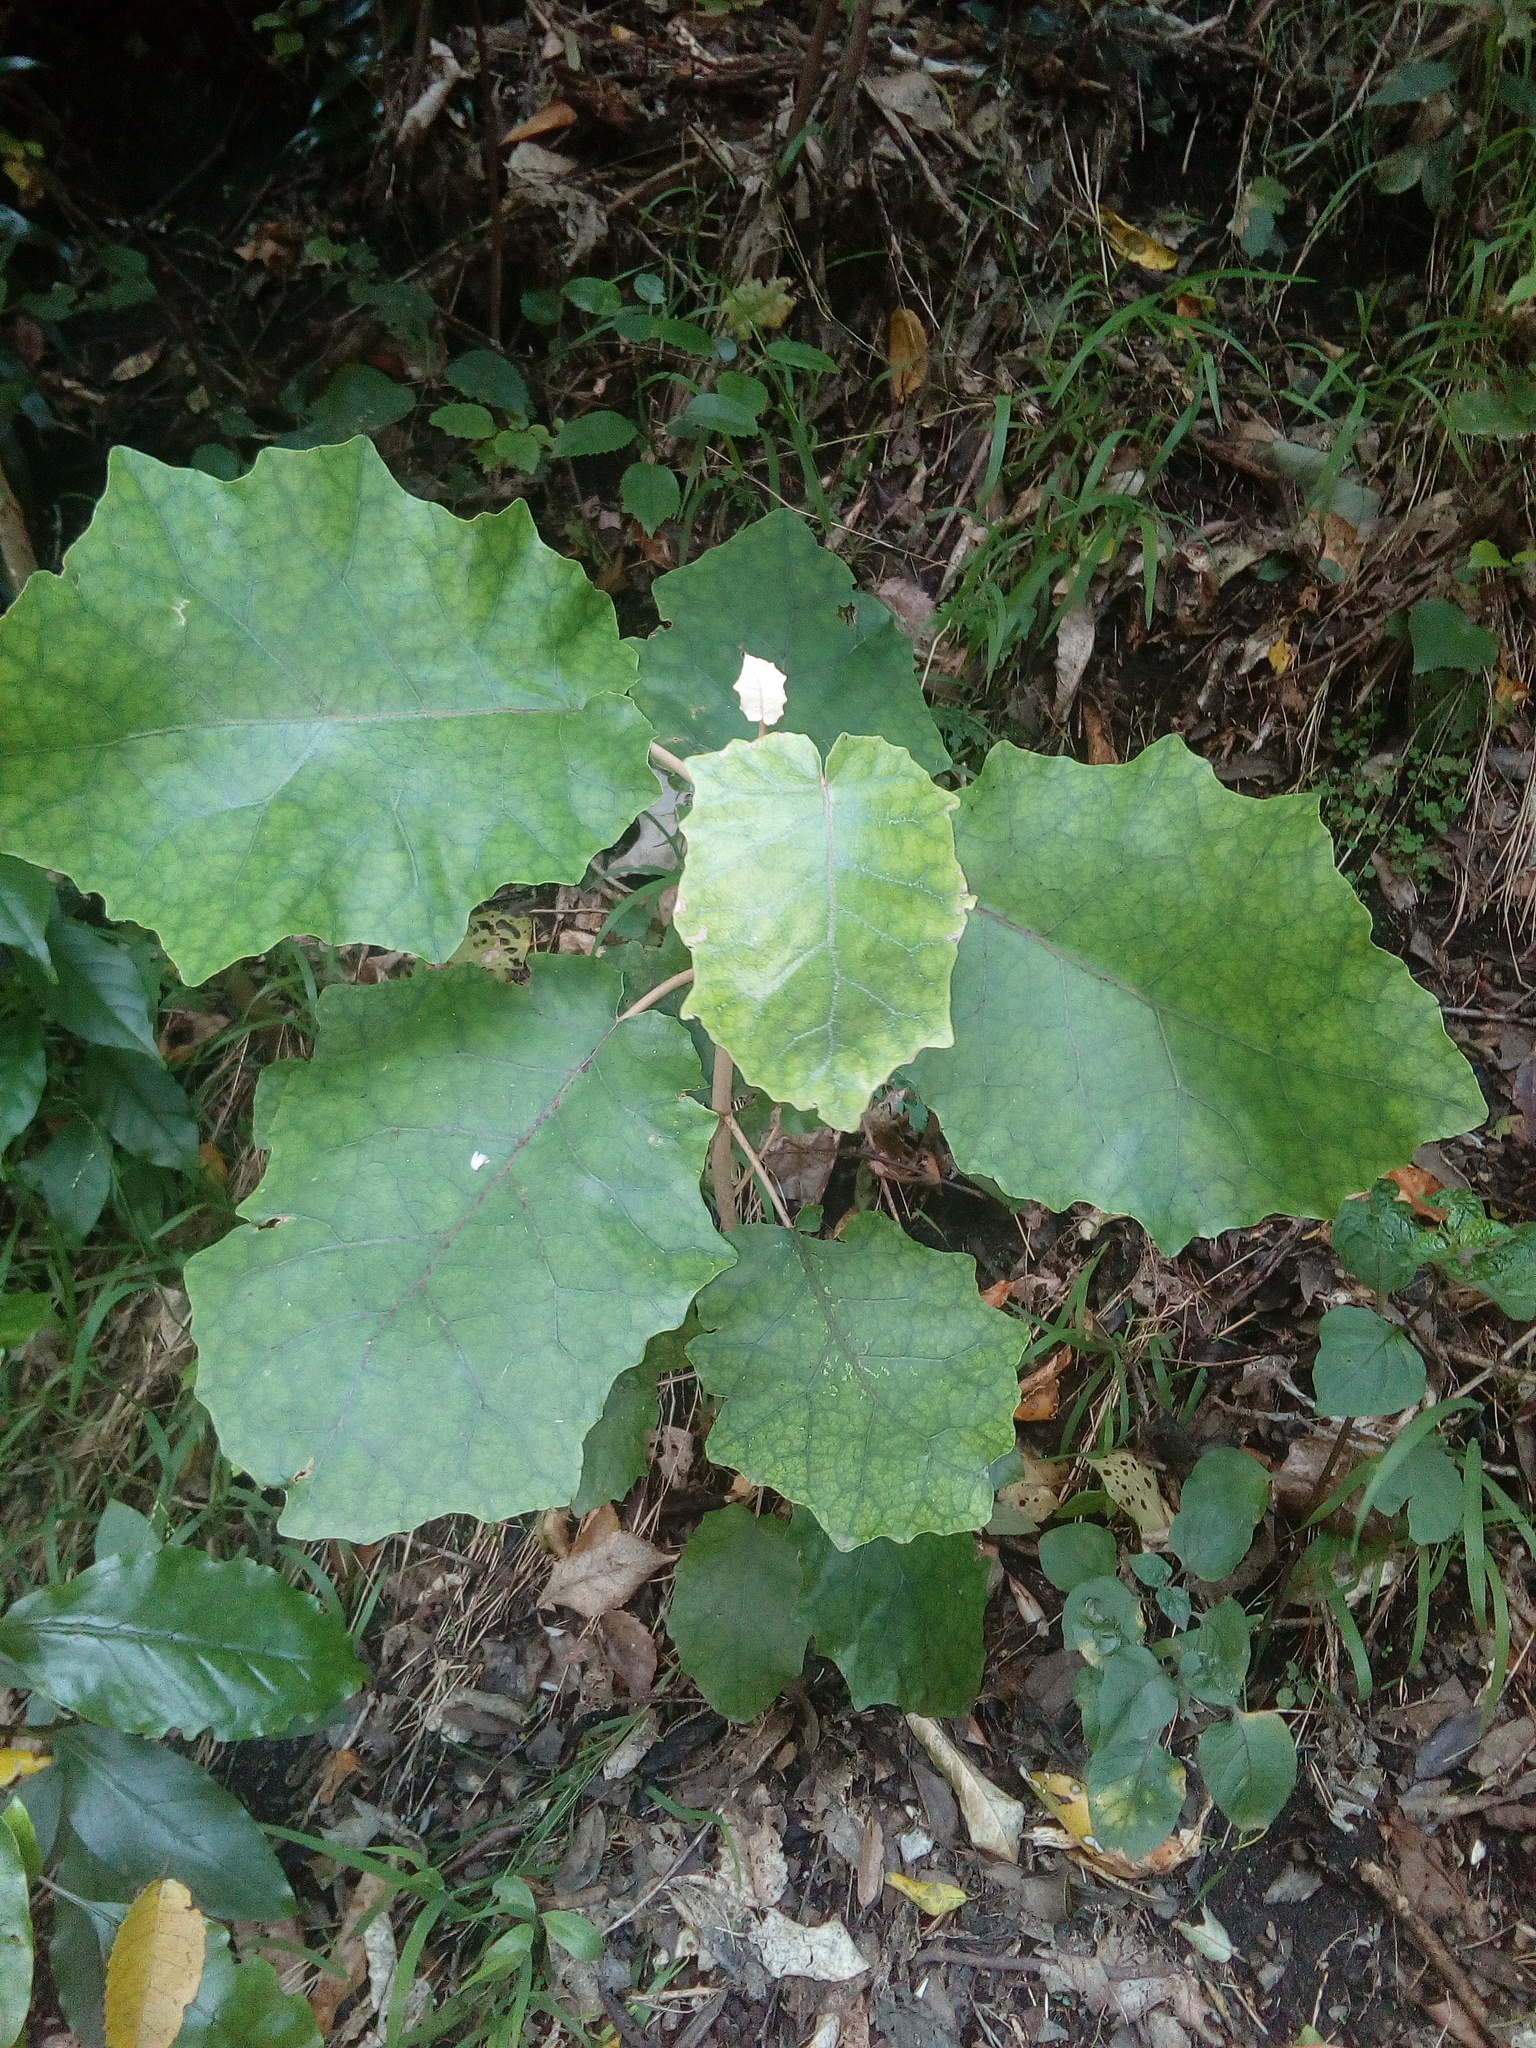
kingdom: Plantae
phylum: Tracheophyta
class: Magnoliopsida
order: Asterales
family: Asteraceae
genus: Brachyglottis
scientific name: Brachyglottis repanda
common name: Hedge ragwort
